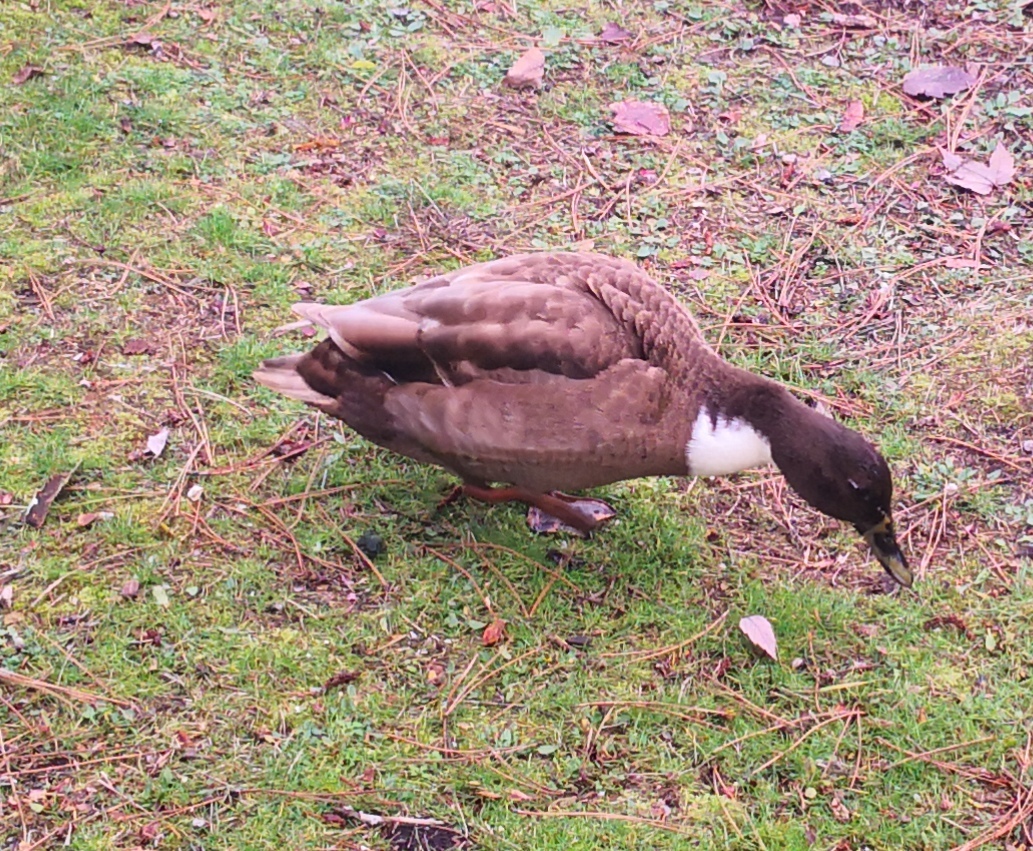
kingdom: Animalia
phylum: Chordata
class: Aves
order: Anseriformes
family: Anatidae
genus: Anas
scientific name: Anas platyrhynchos
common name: Mallard
